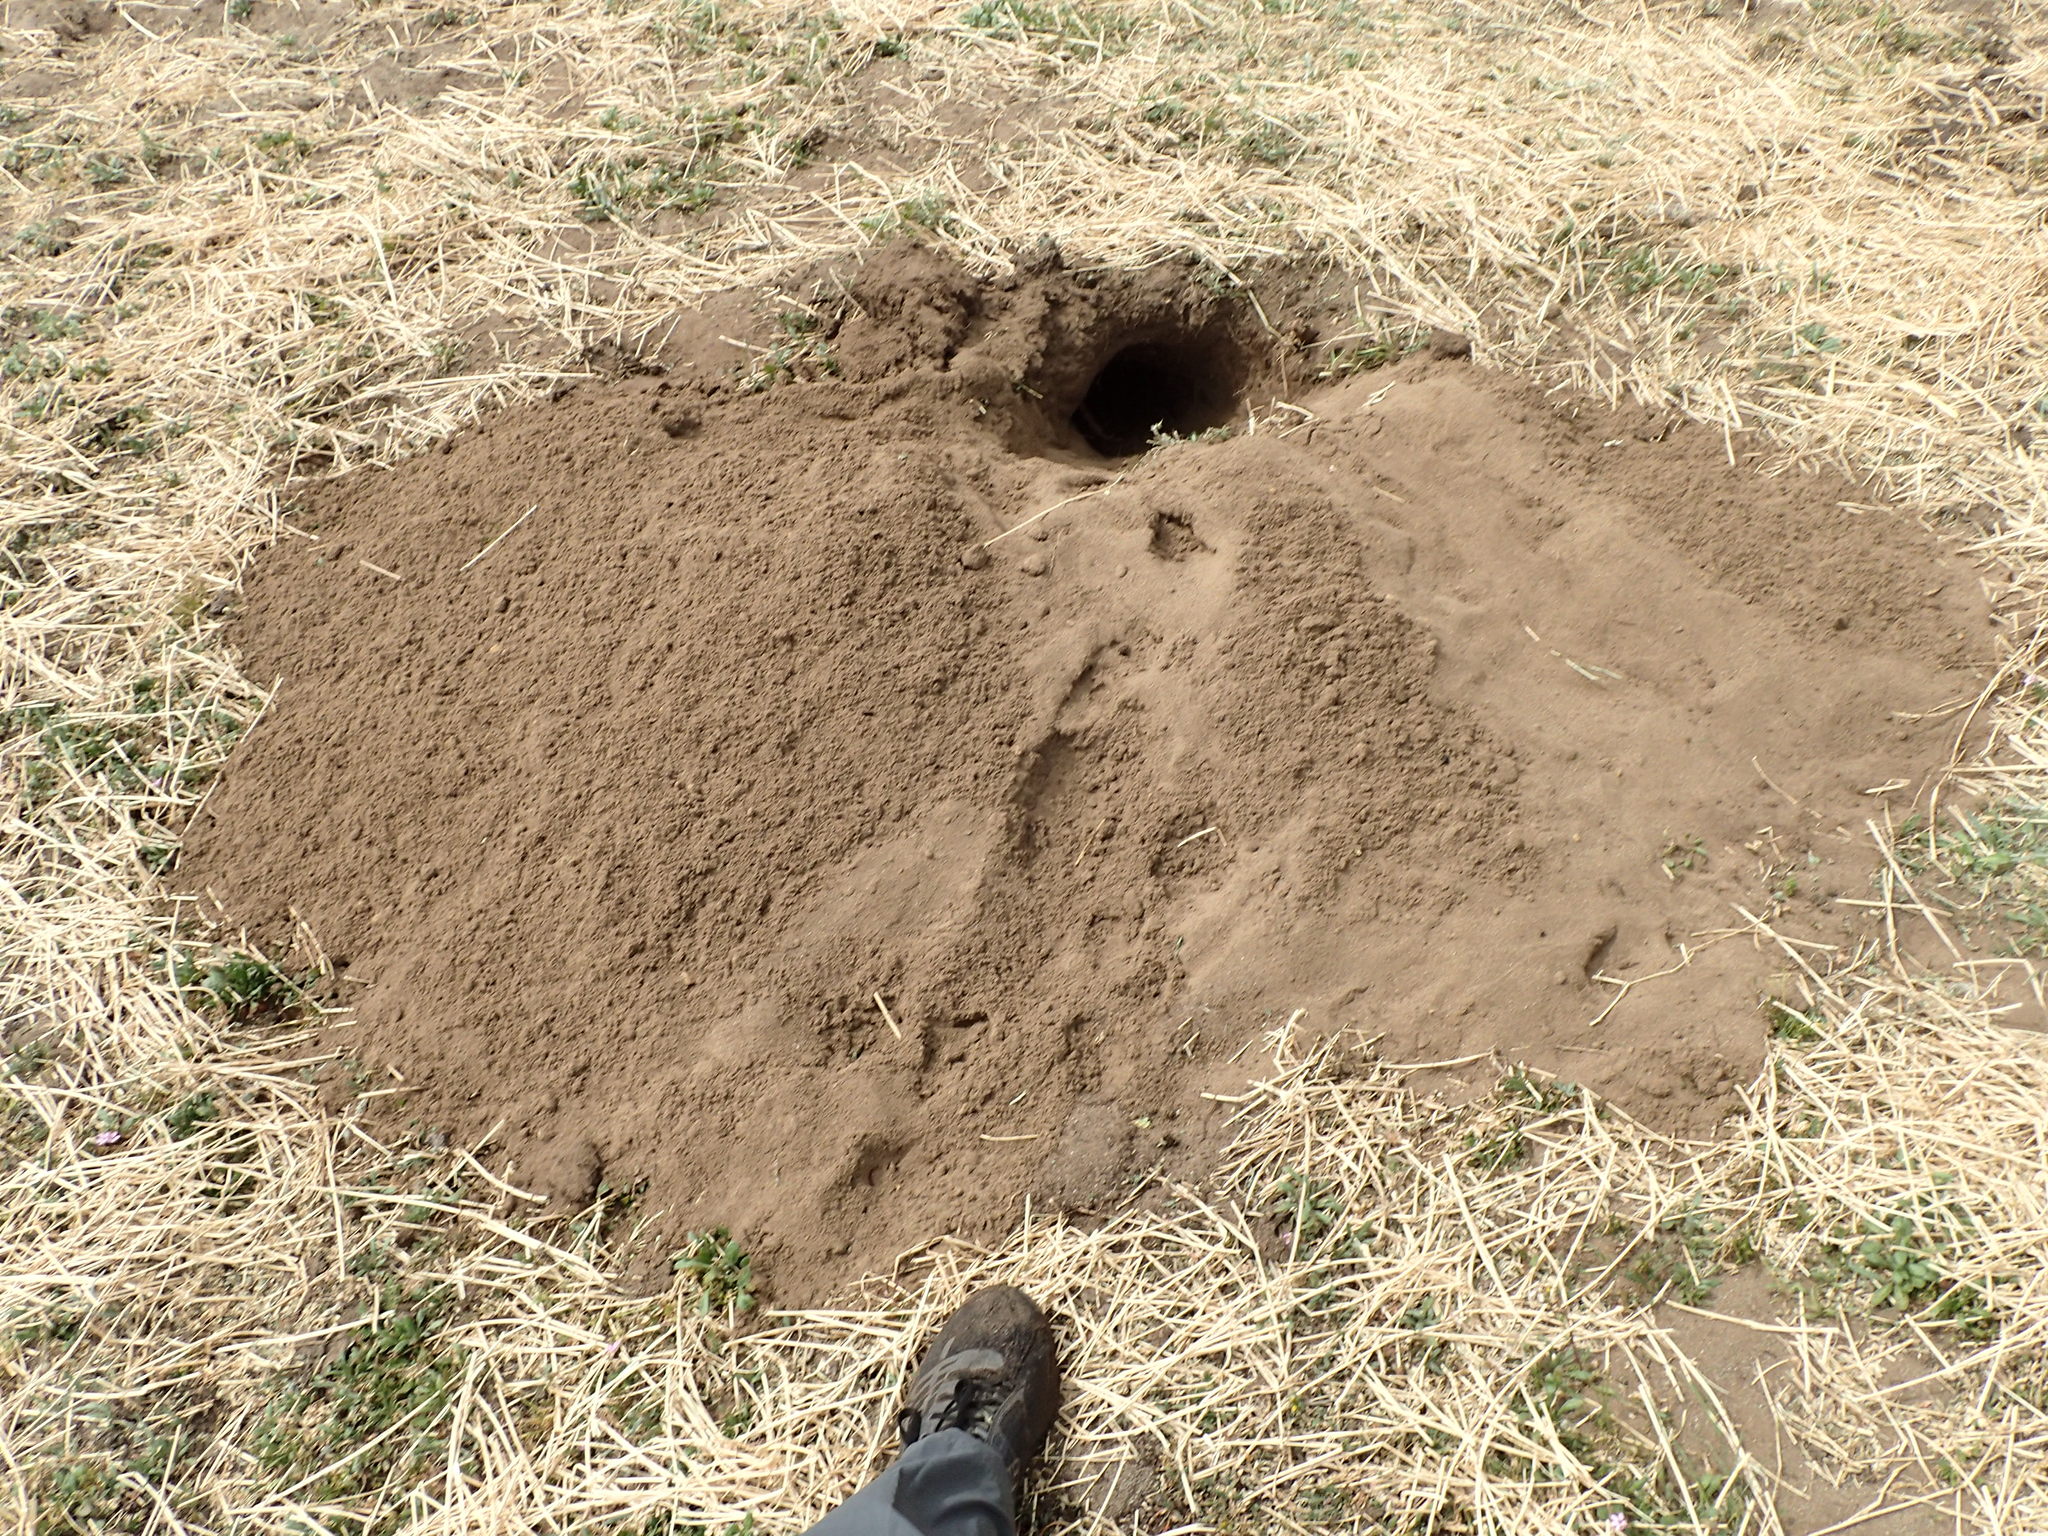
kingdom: Animalia
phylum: Chordata
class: Mammalia
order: Carnivora
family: Mustelidae
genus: Taxidea
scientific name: Taxidea taxus
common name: American badger
